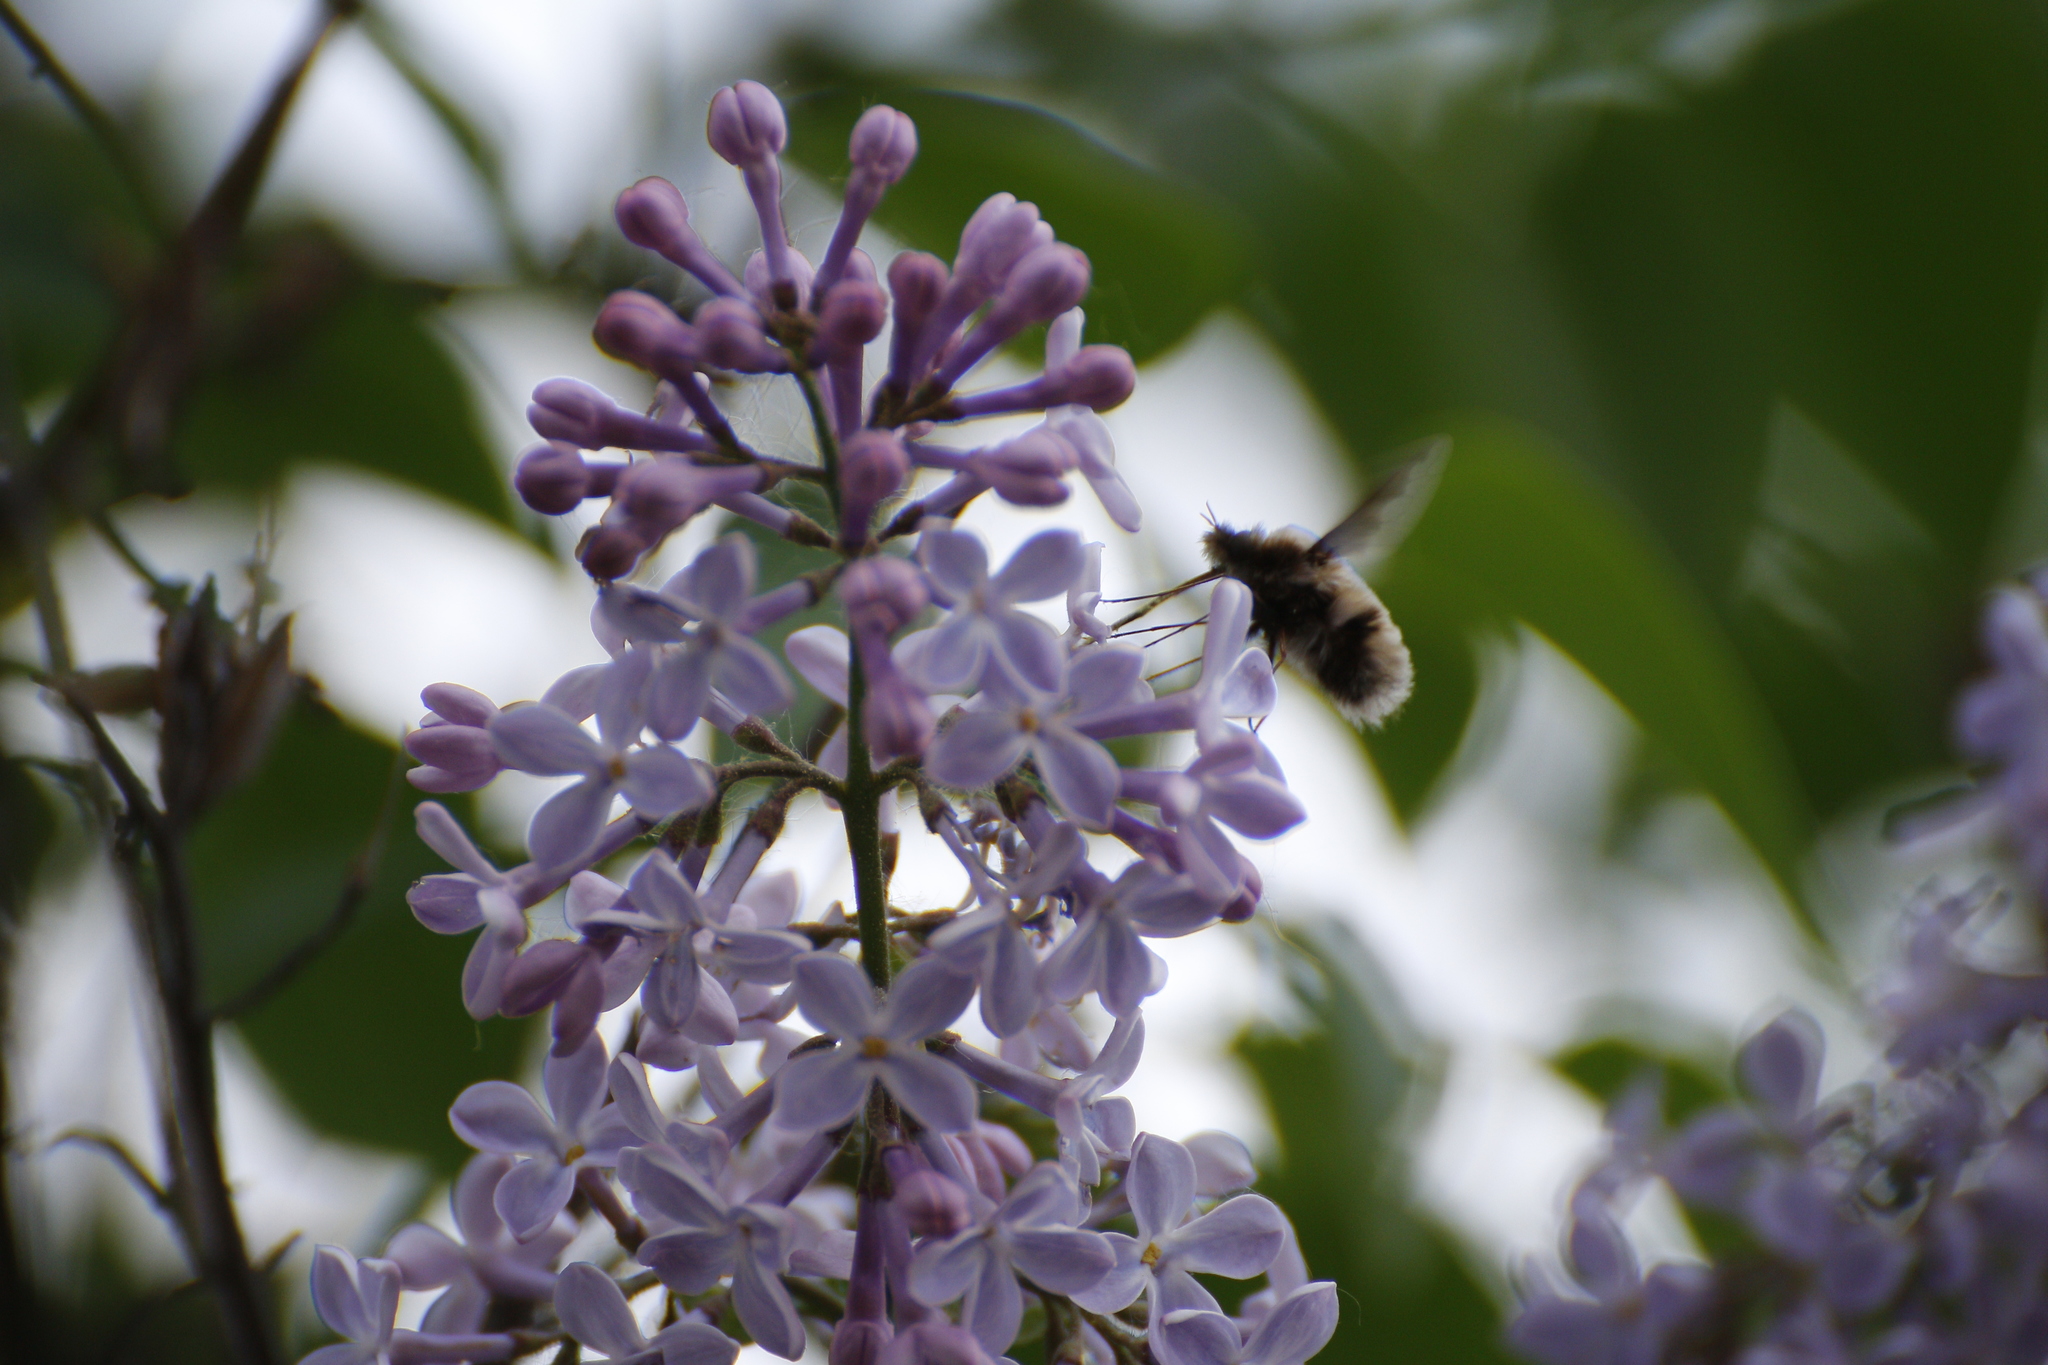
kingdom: Animalia
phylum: Arthropoda
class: Insecta
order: Diptera
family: Bombyliidae
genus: Bombylius
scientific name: Bombylius major
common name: Bee fly
